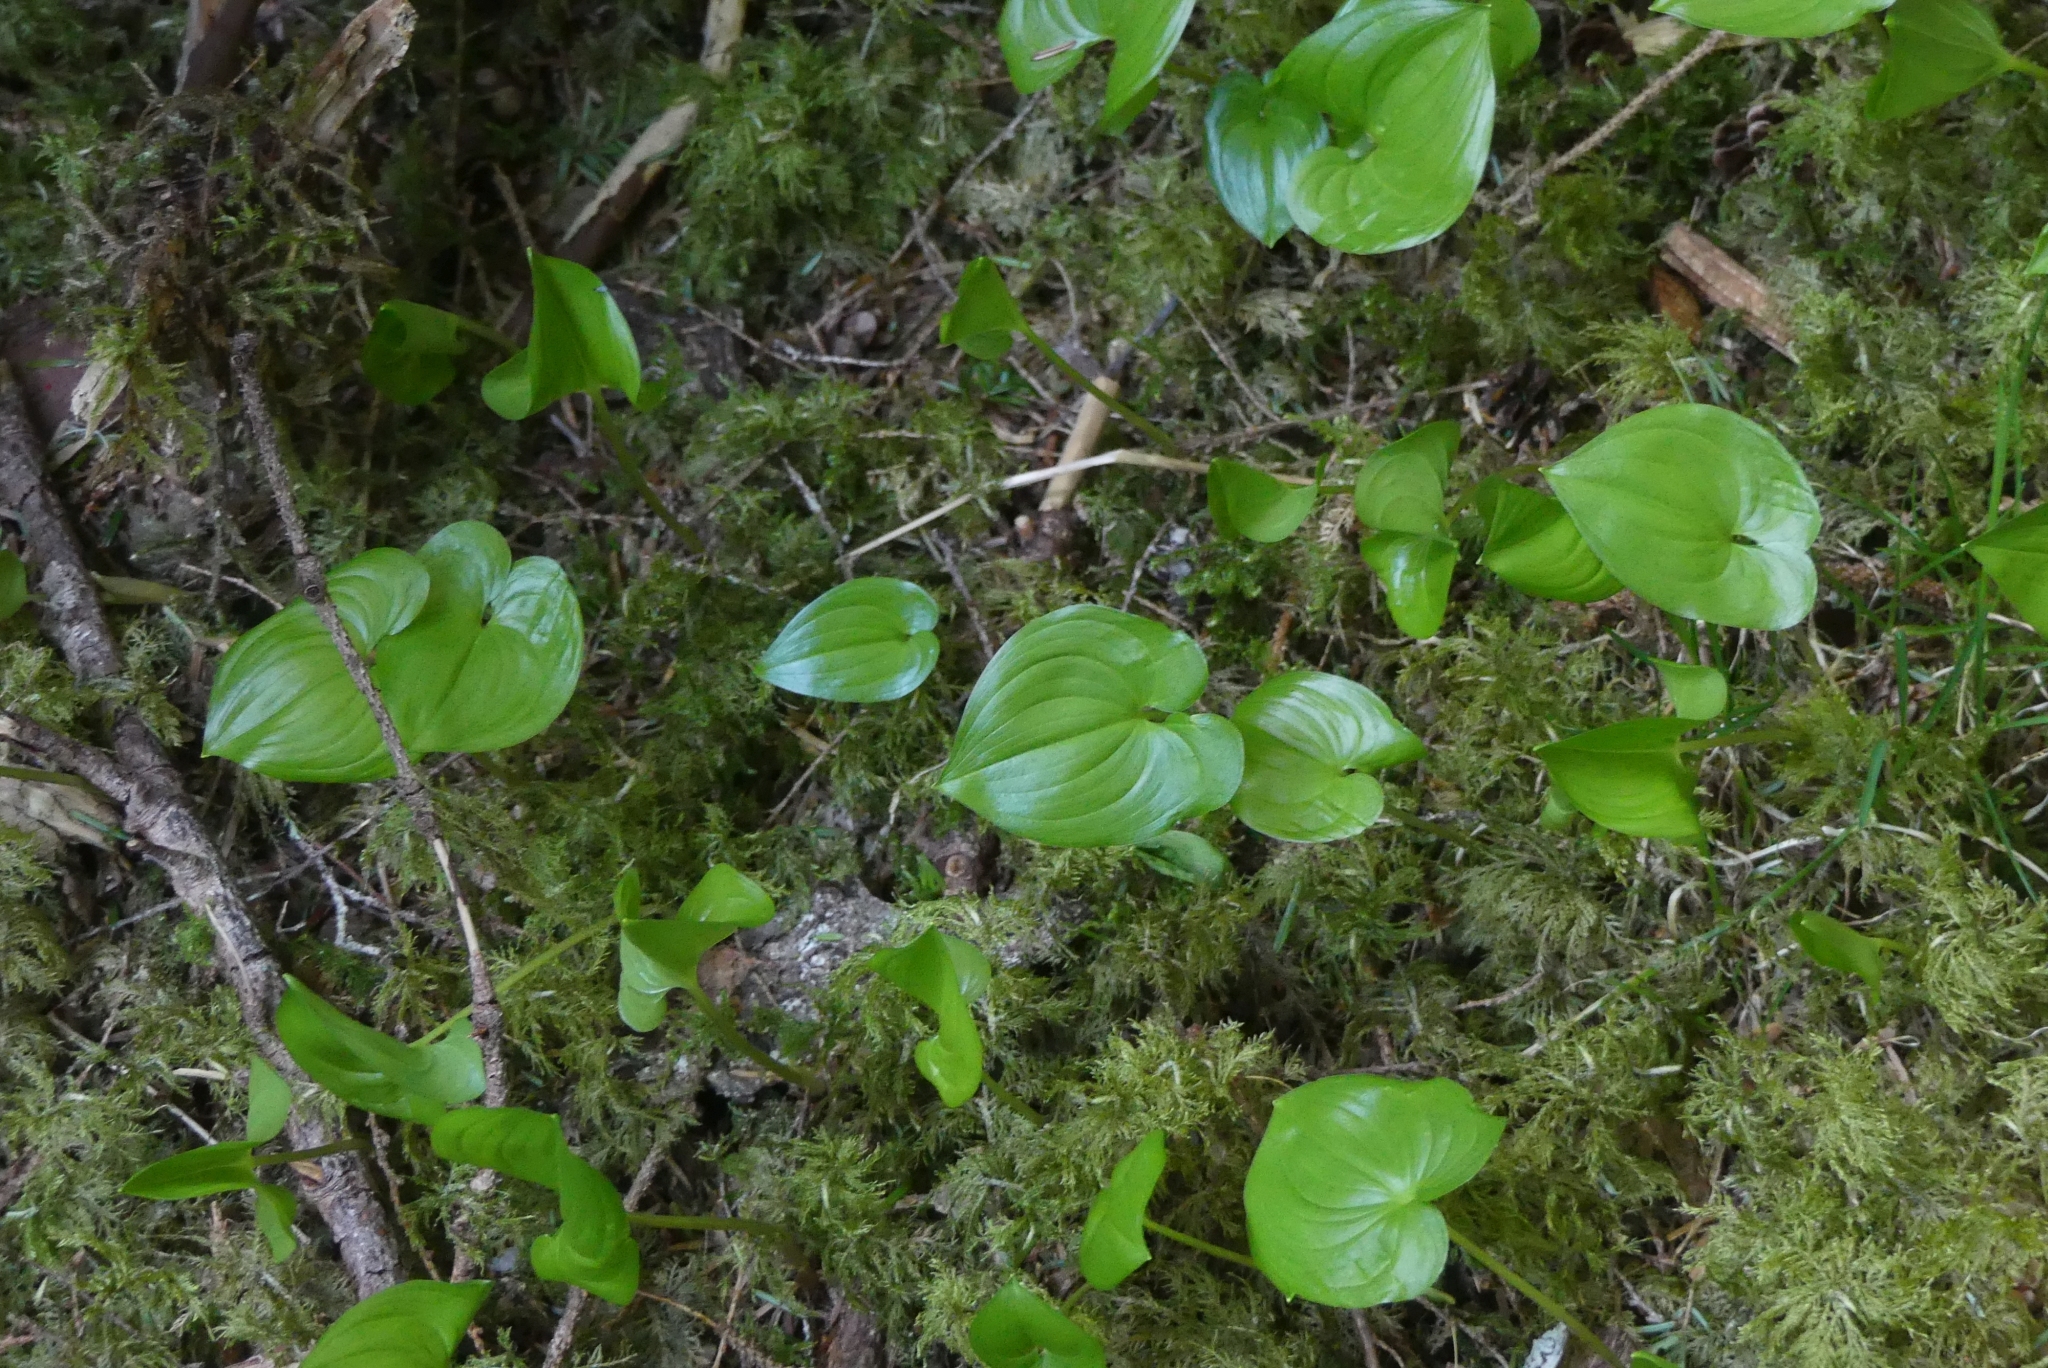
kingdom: Plantae
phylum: Tracheophyta
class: Liliopsida
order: Asparagales
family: Asparagaceae
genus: Maianthemum
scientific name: Maianthemum dilatatum
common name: False lily-of-the-valley
